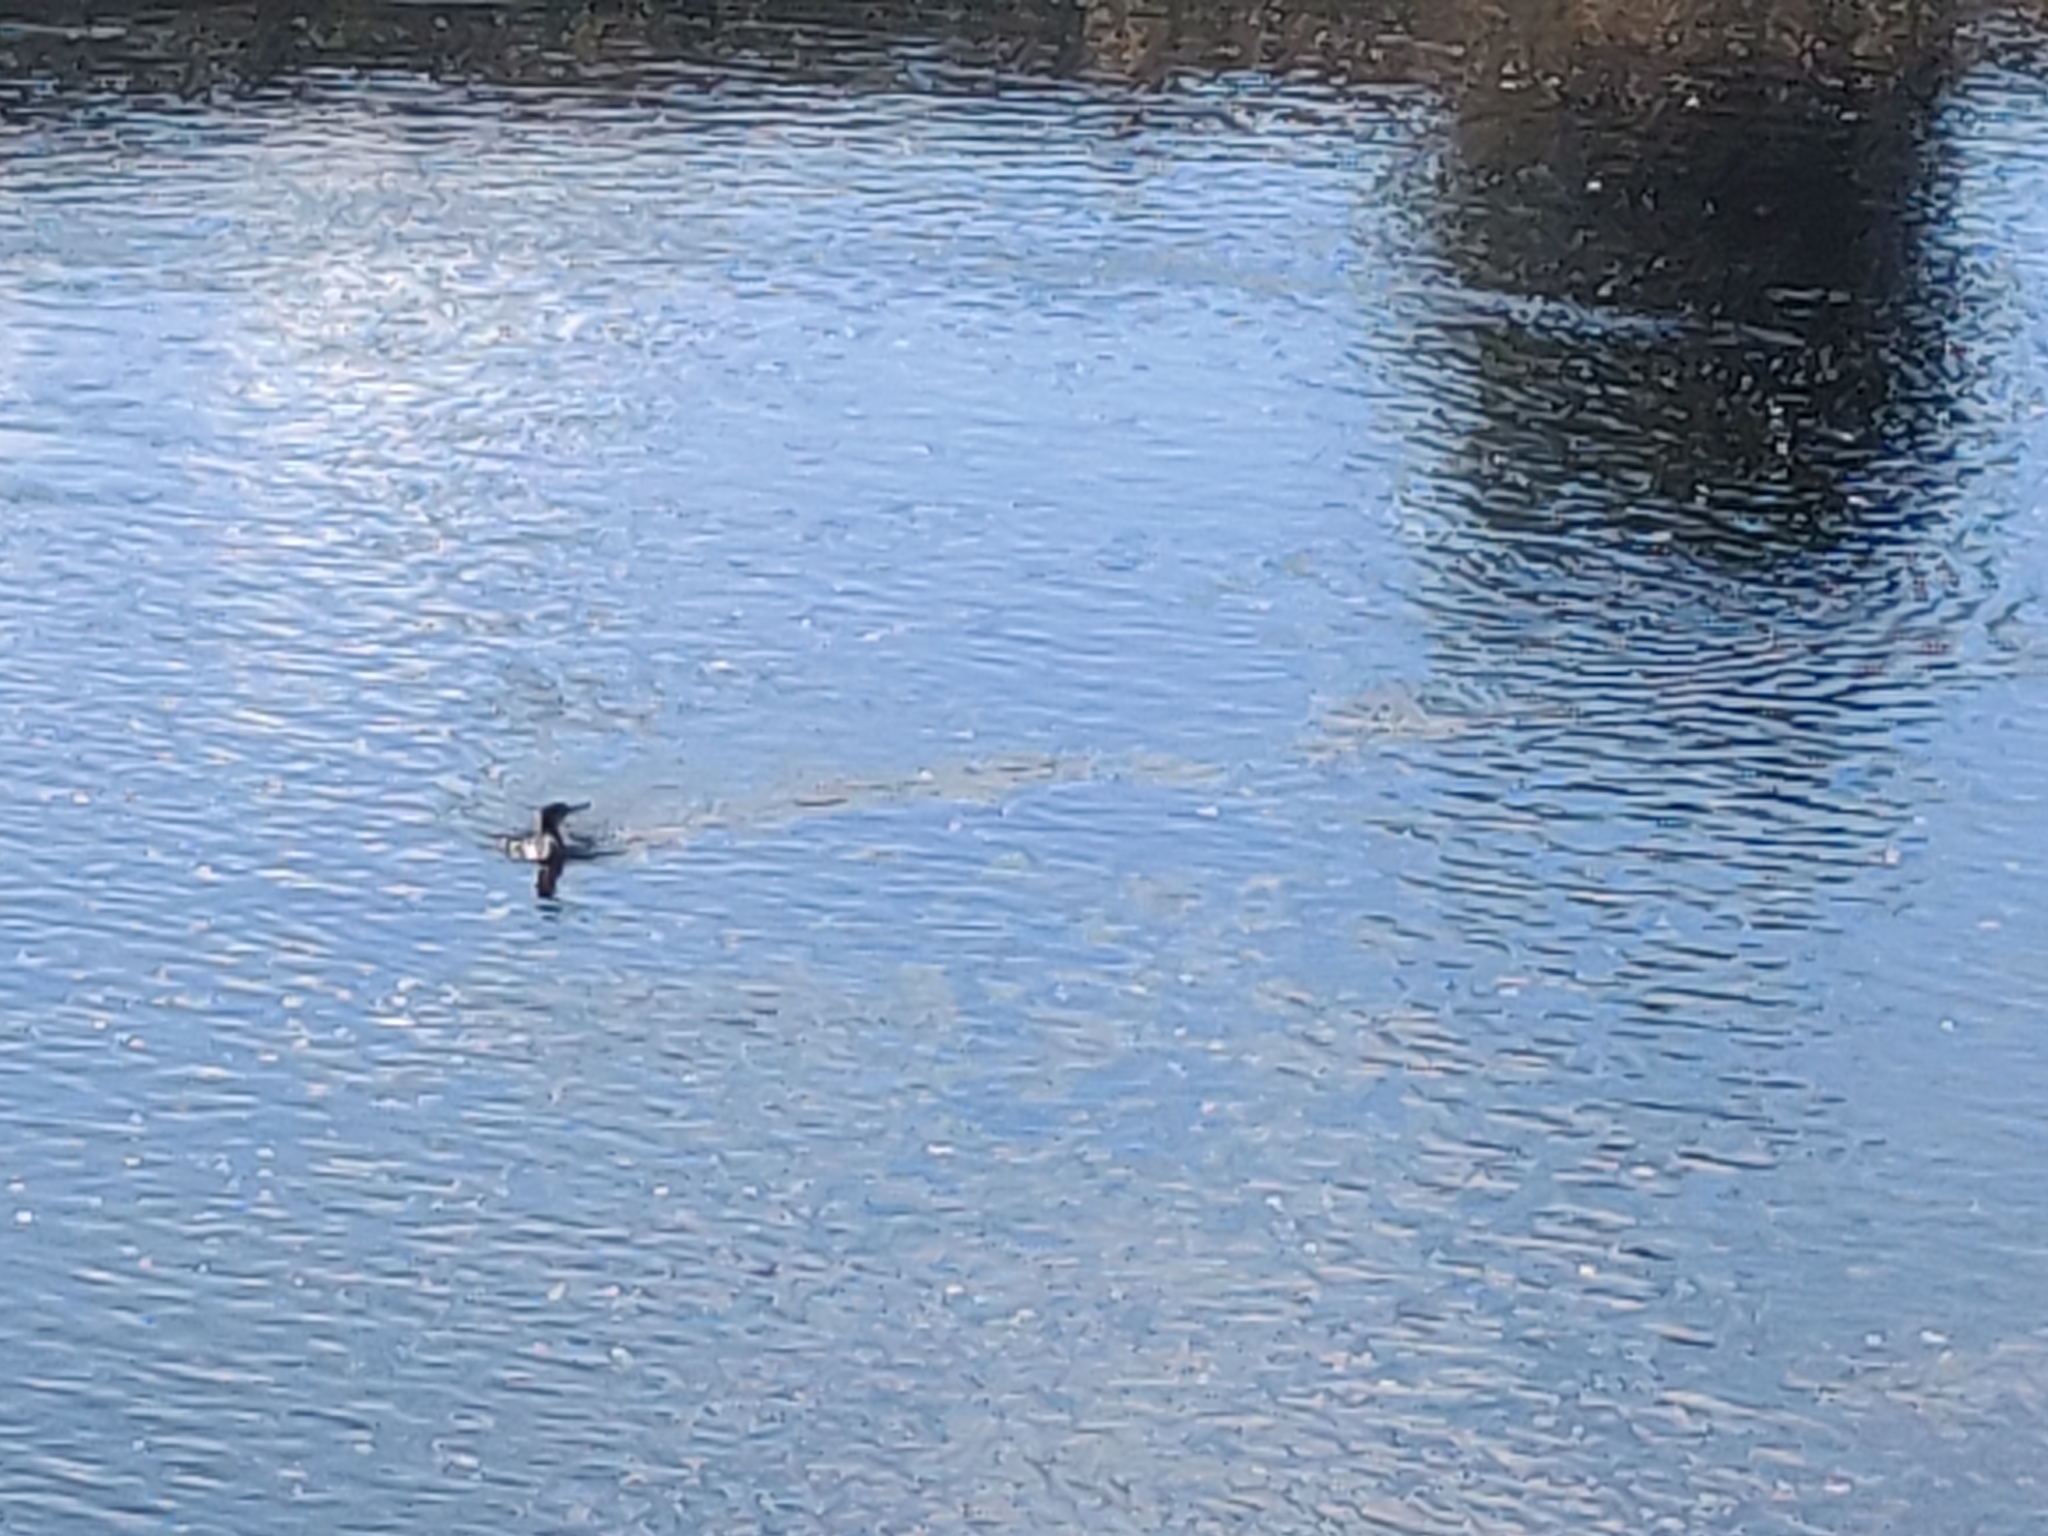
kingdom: Animalia
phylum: Chordata
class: Aves
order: Suliformes
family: Phalacrocoracidae
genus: Phalacrocorax
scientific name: Phalacrocorax carbo
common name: Great cormorant
